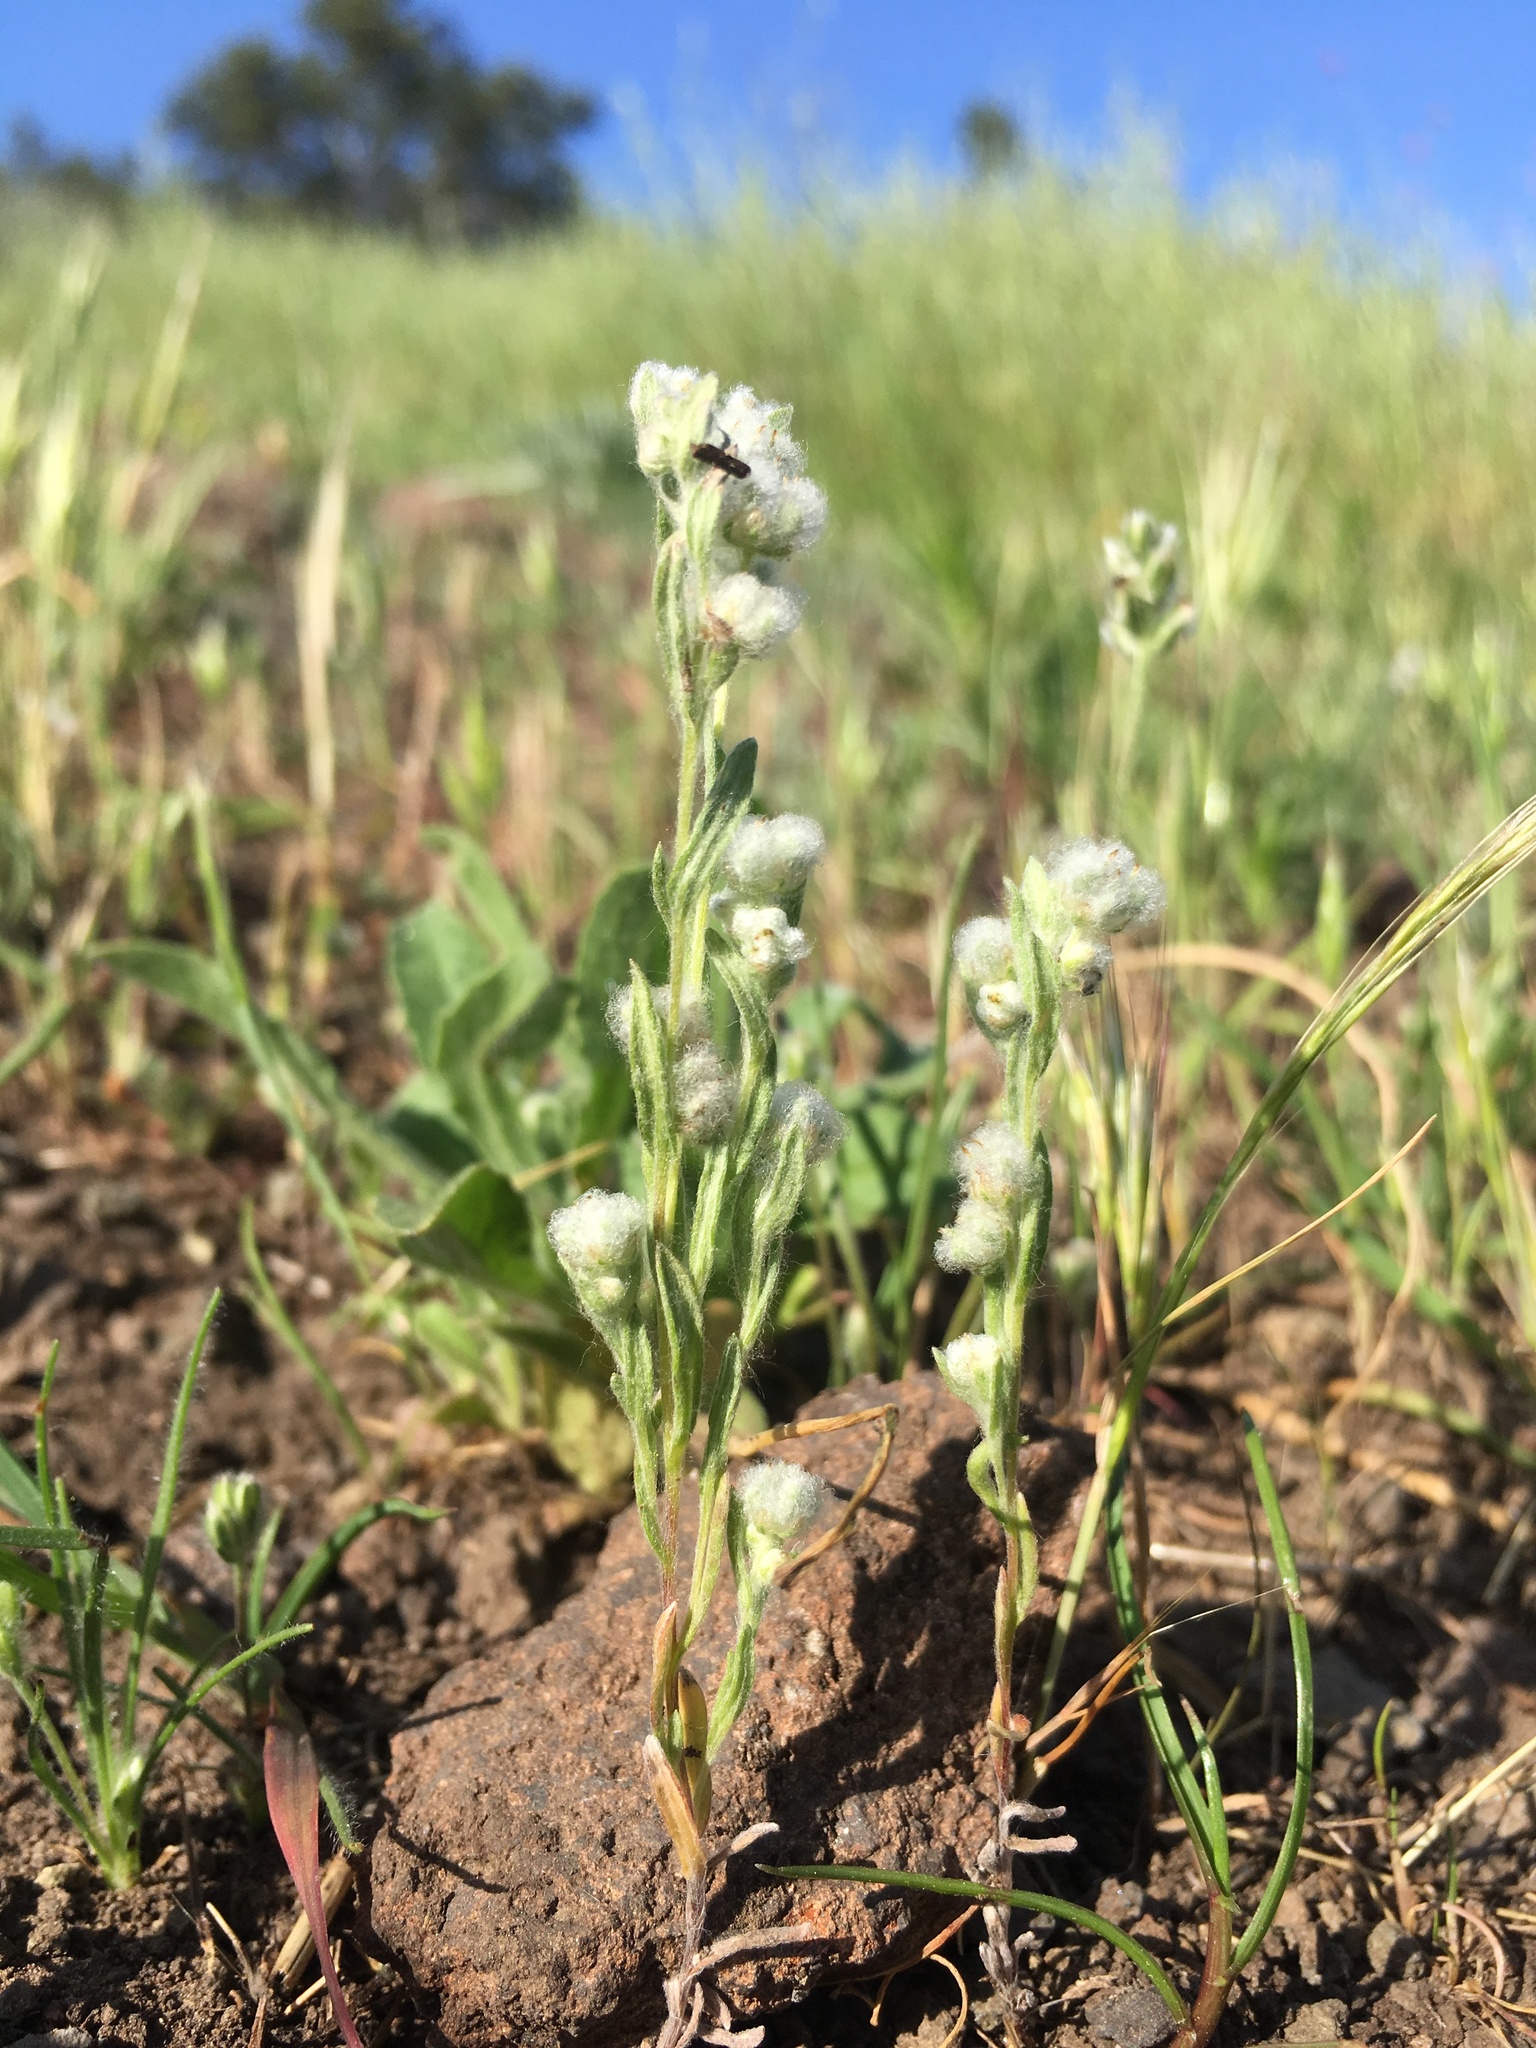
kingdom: Plantae
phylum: Tracheophyta
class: Magnoliopsida
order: Asterales
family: Asteraceae
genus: Bombycilaena
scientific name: Bombycilaena californica
